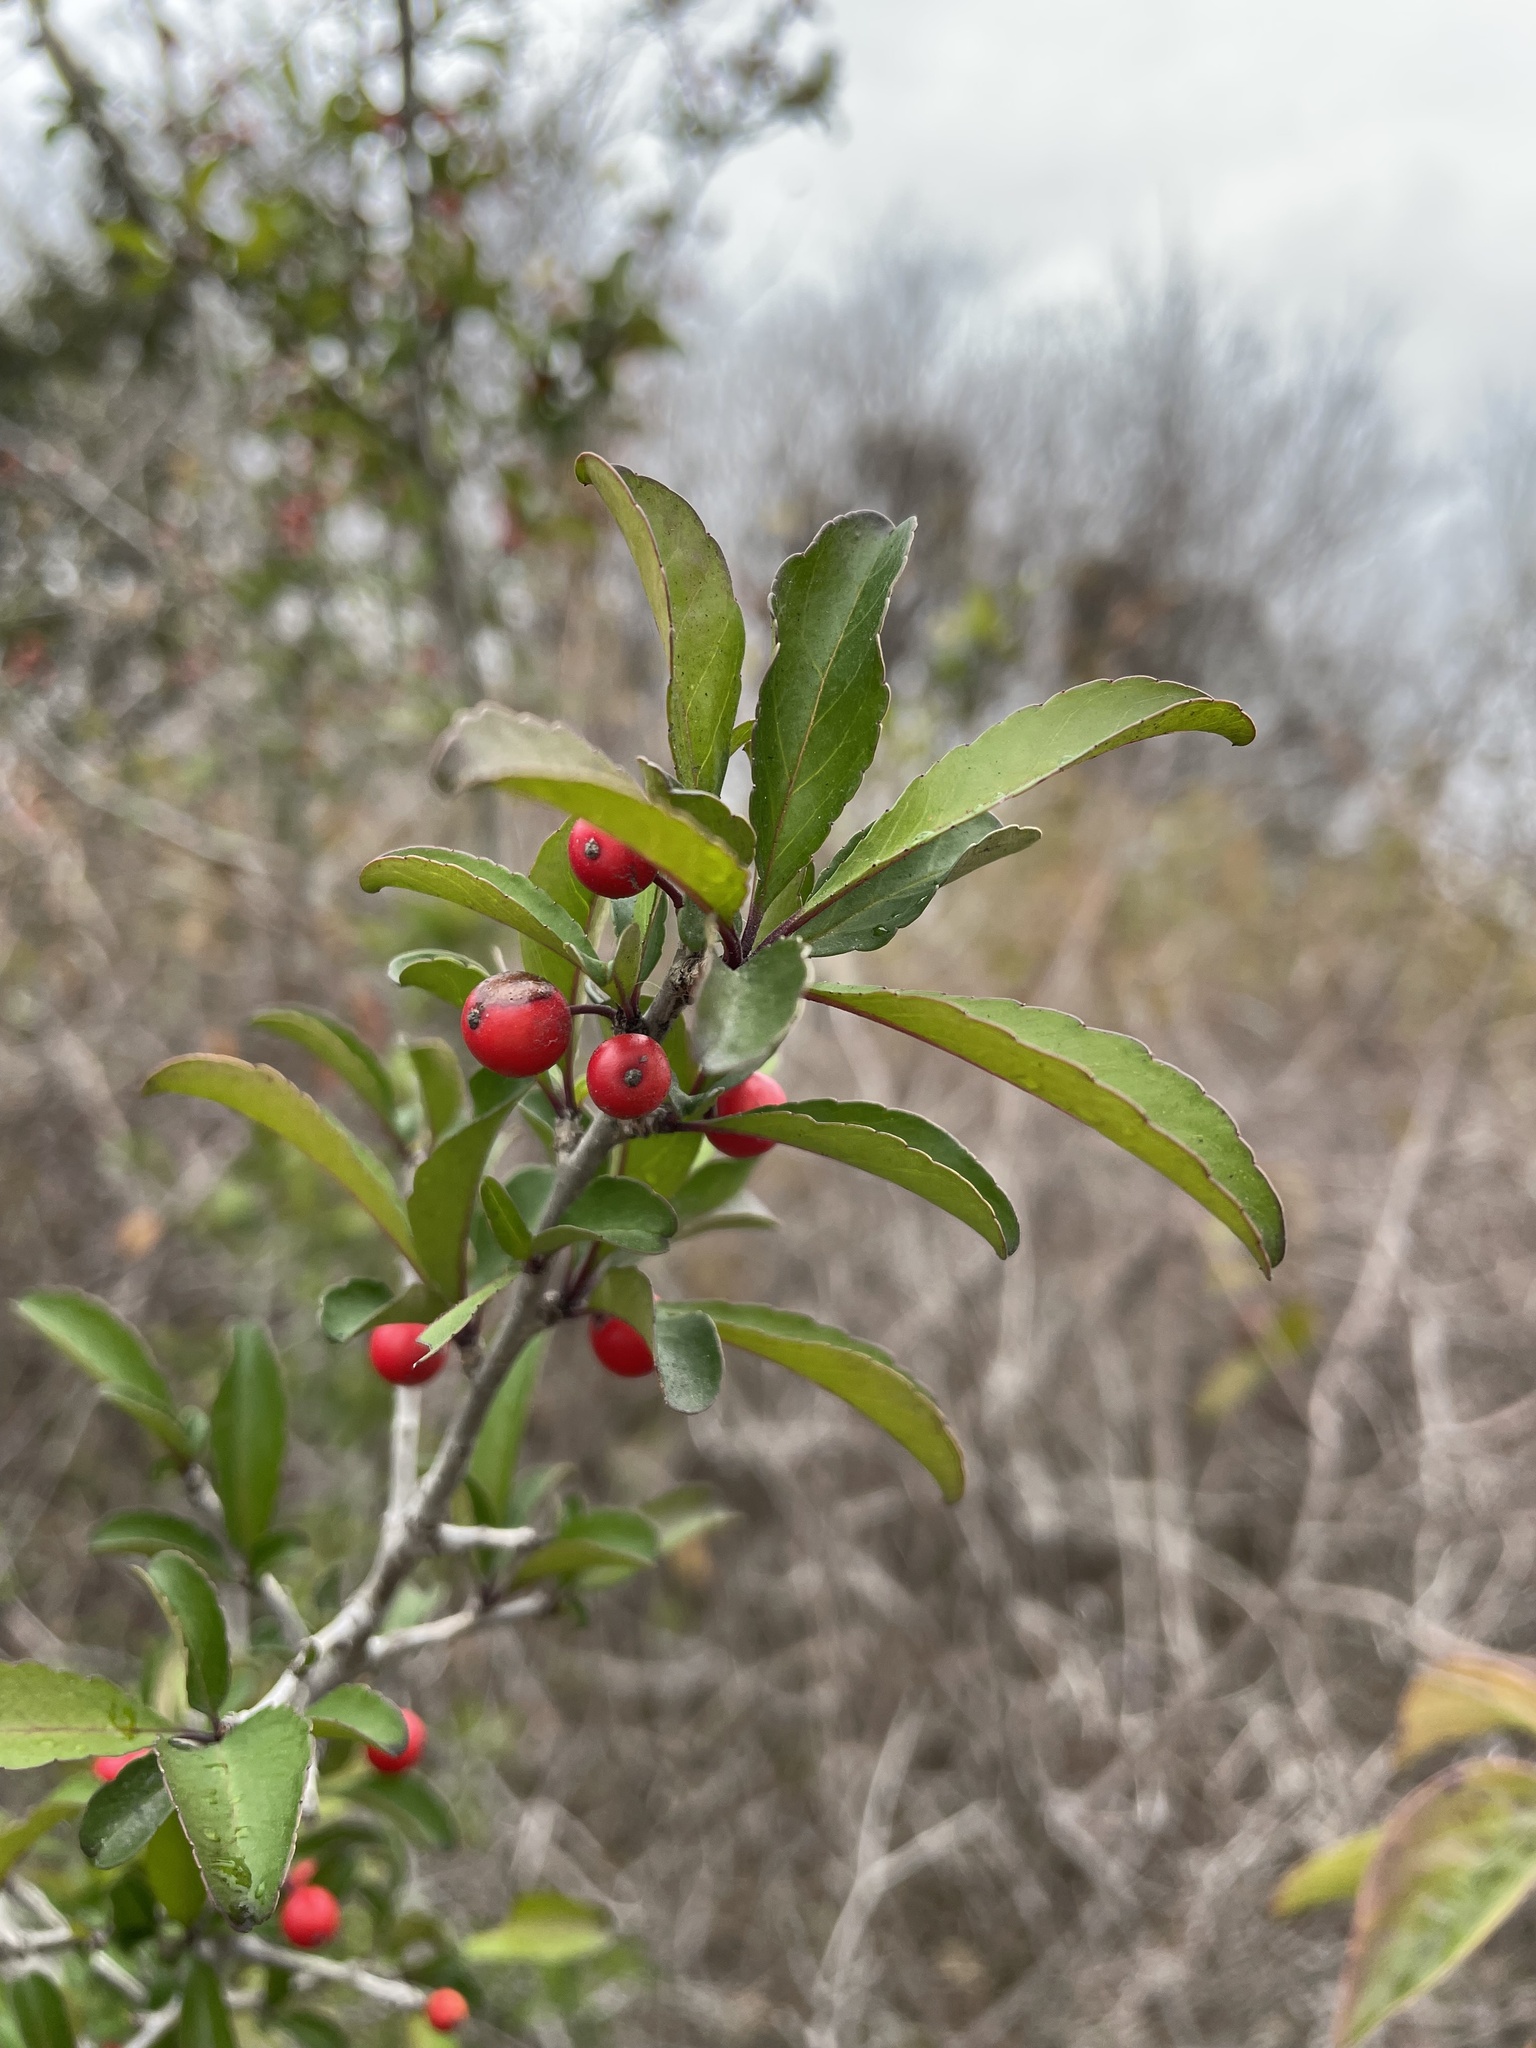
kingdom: Plantae
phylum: Tracheophyta
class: Magnoliopsida
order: Aquifoliales
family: Aquifoliaceae
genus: Ilex
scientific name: Ilex decidua
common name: Possum-haw
